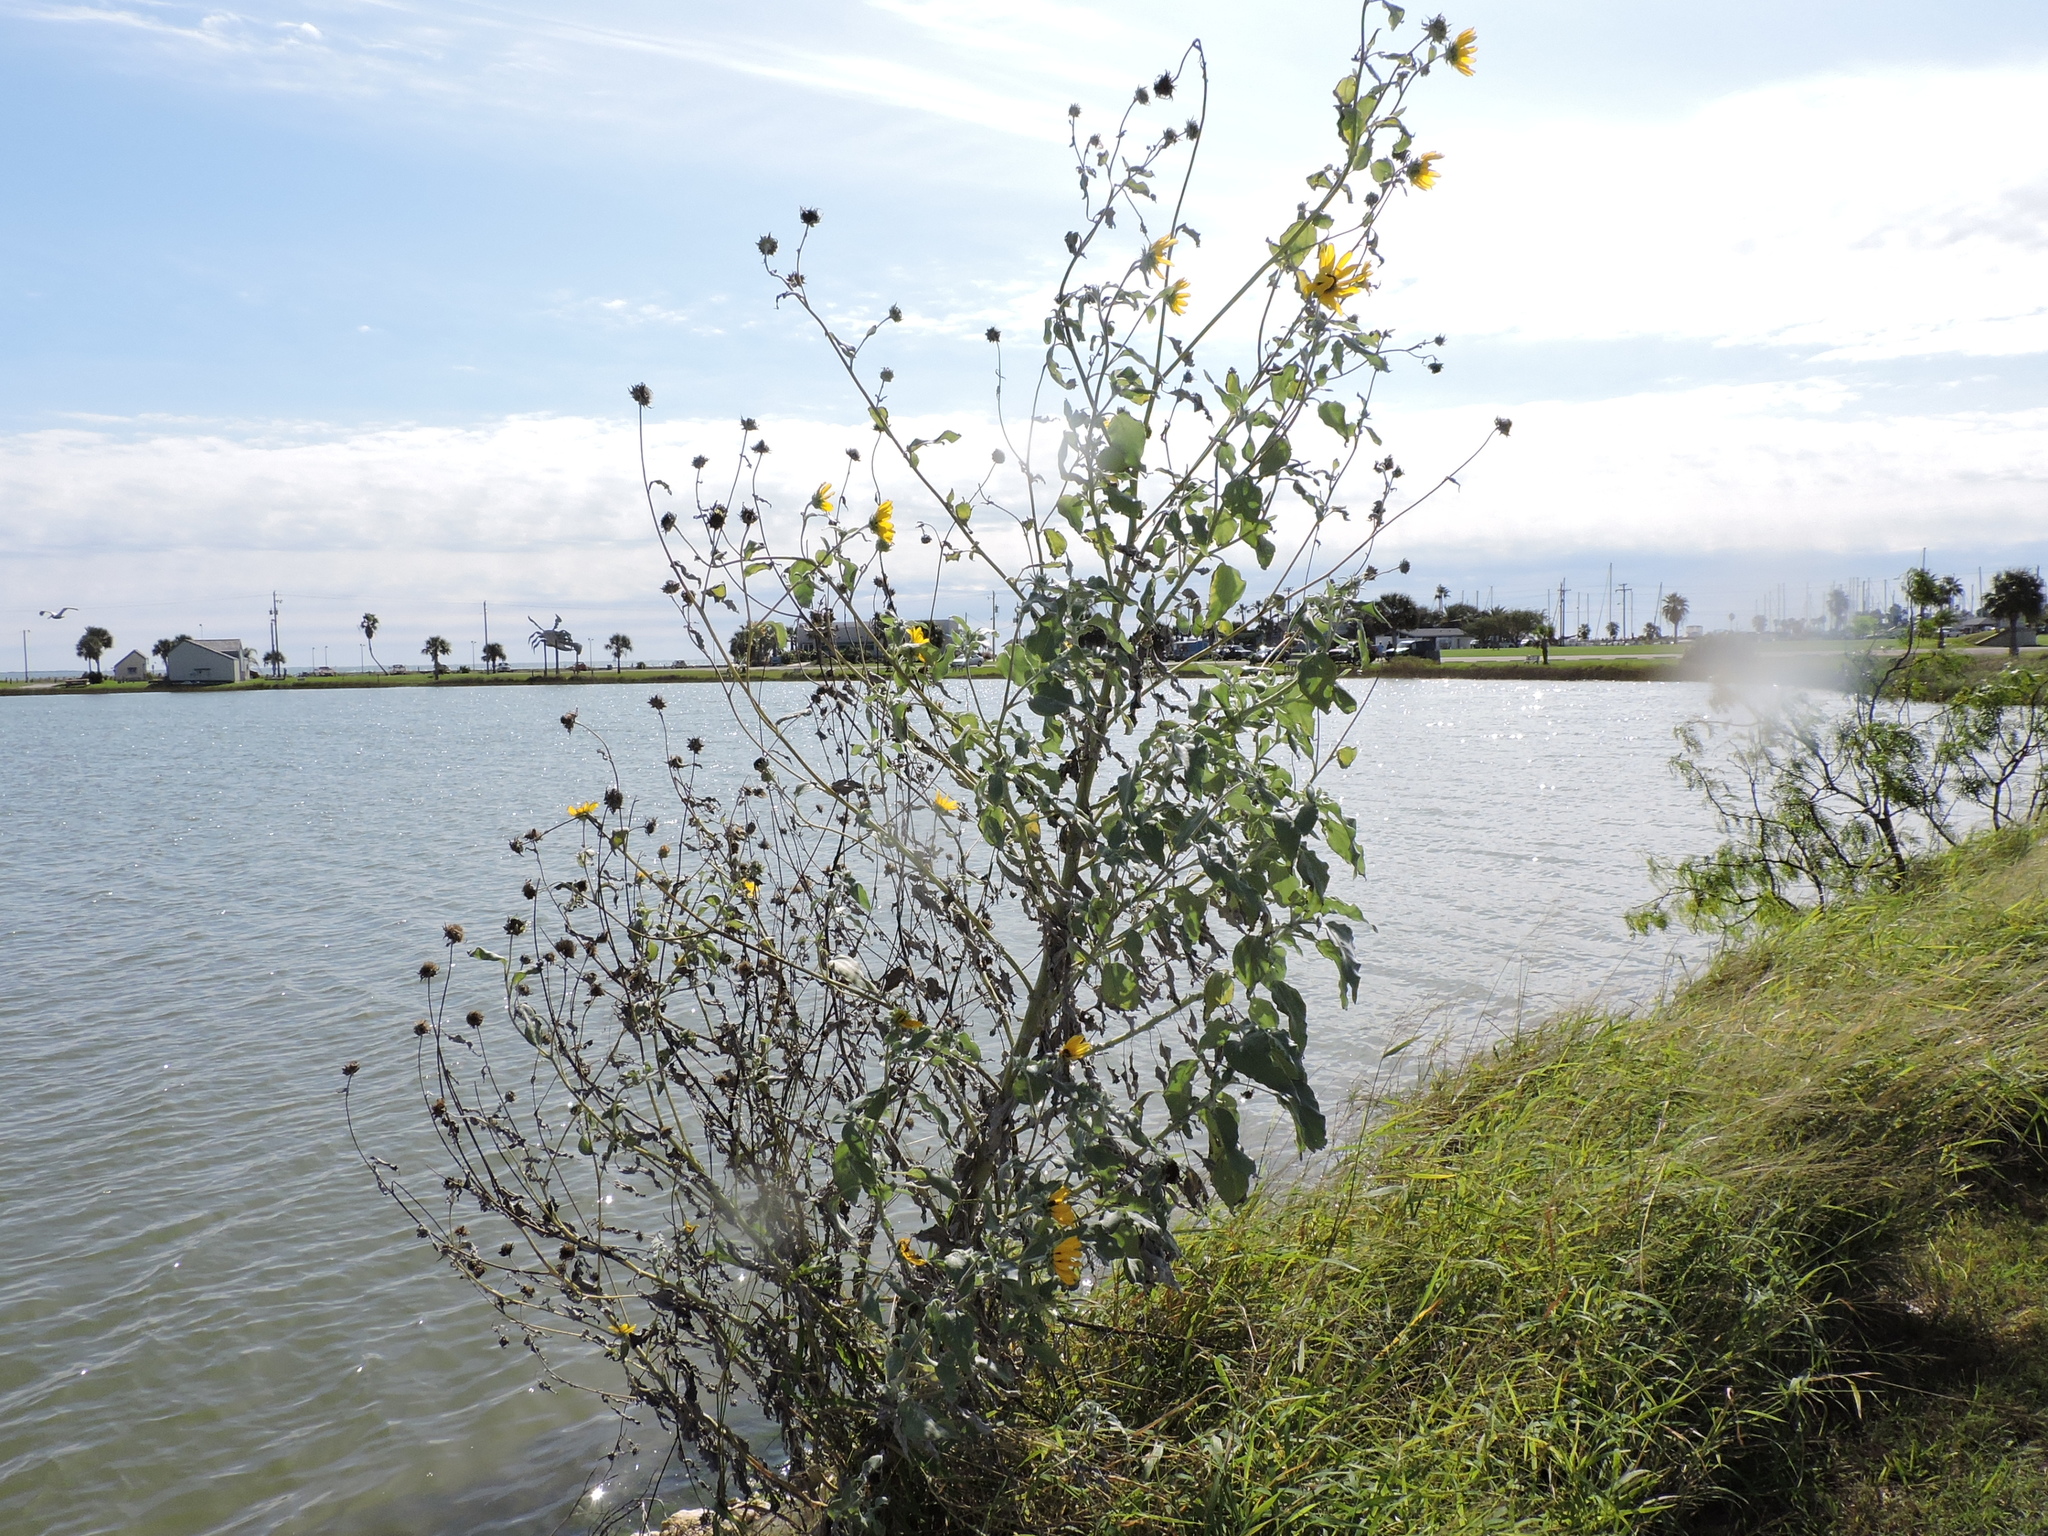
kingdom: Plantae
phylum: Tracheophyta
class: Magnoliopsida
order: Asterales
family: Asteraceae
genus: Helianthus
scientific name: Helianthus argophyllus
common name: Silverleaf sunflower
